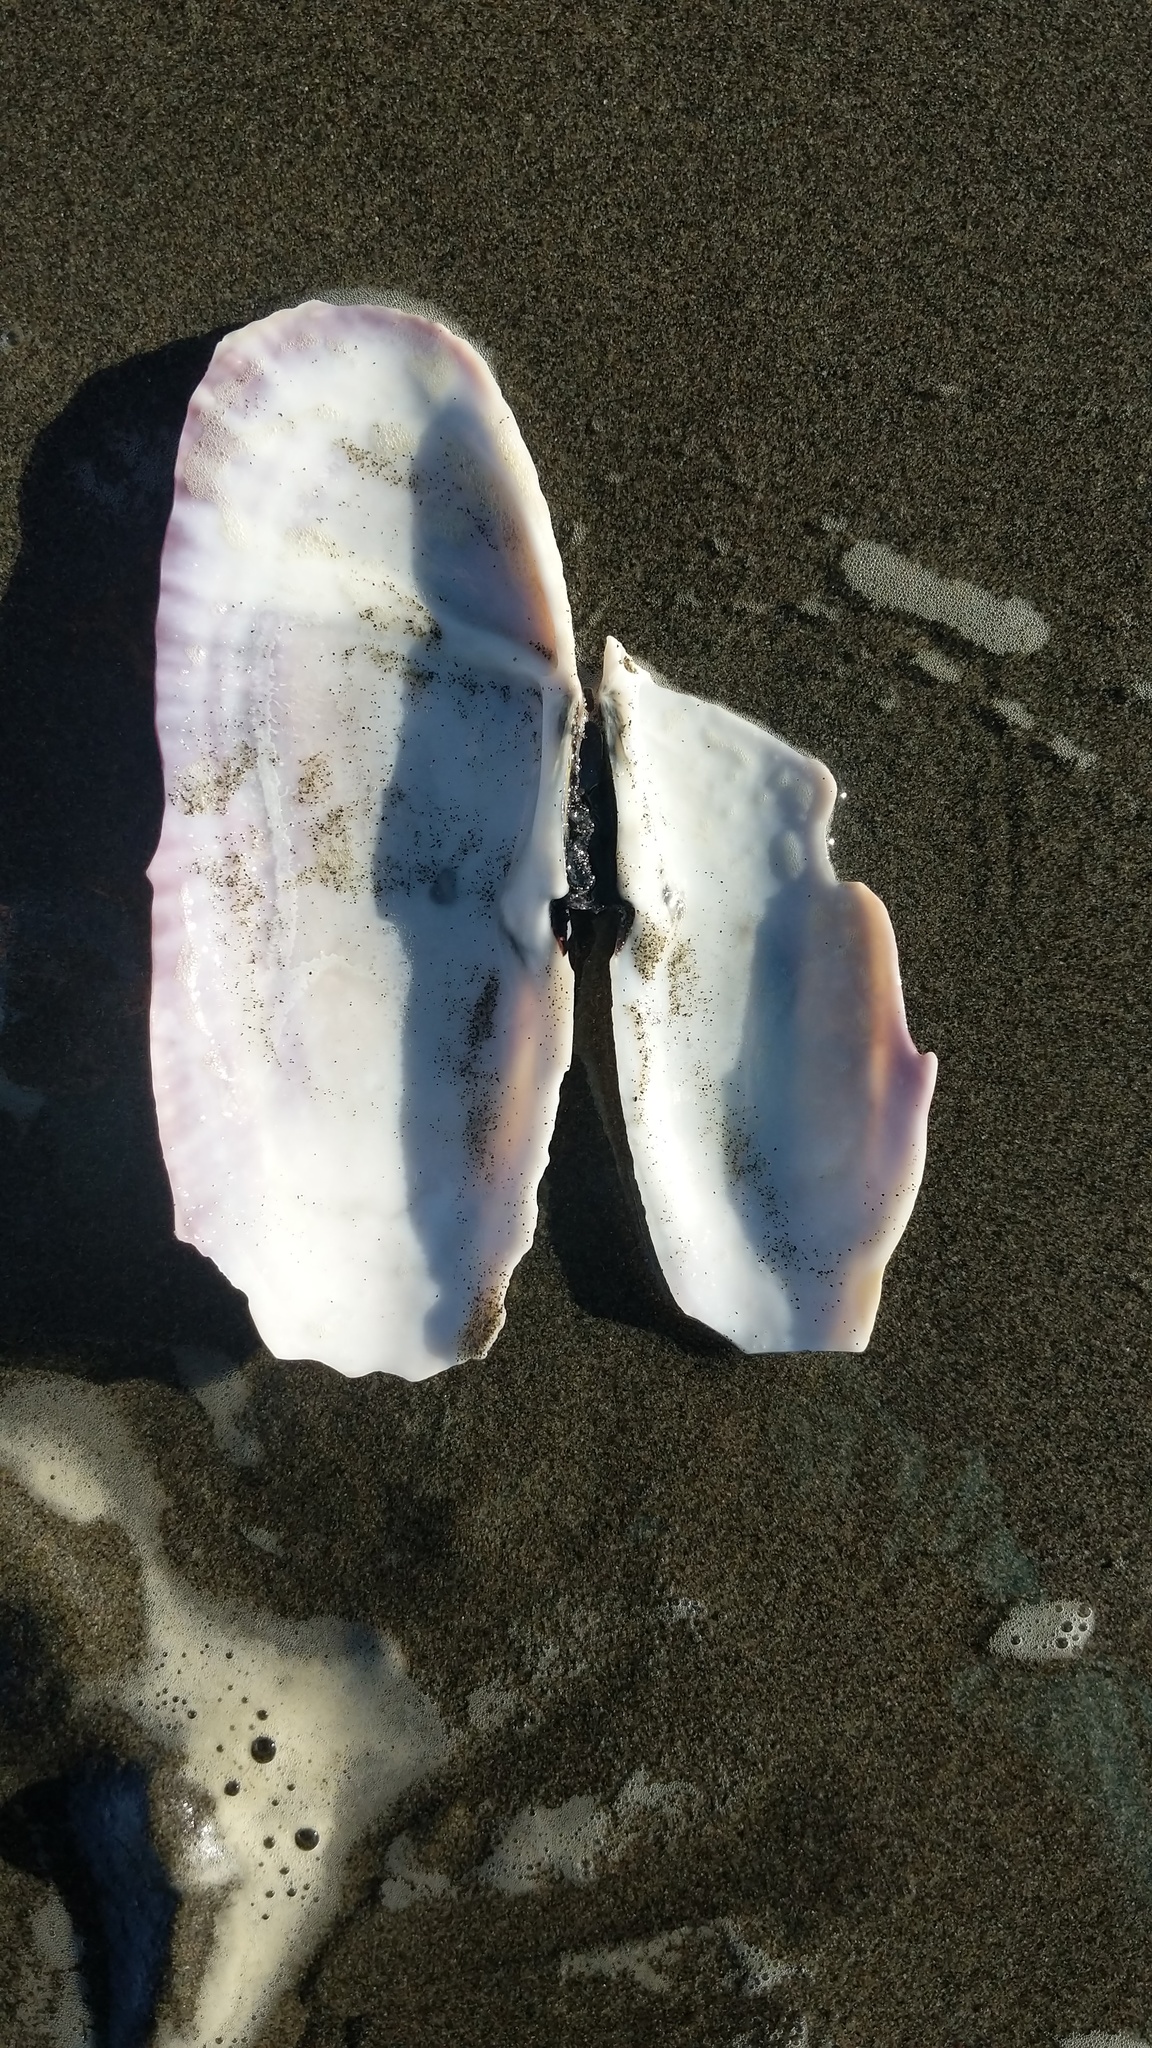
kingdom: Animalia
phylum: Mollusca
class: Bivalvia
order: Adapedonta
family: Pharidae
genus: Siliqua
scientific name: Siliqua patula
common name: Pacific razor clam
